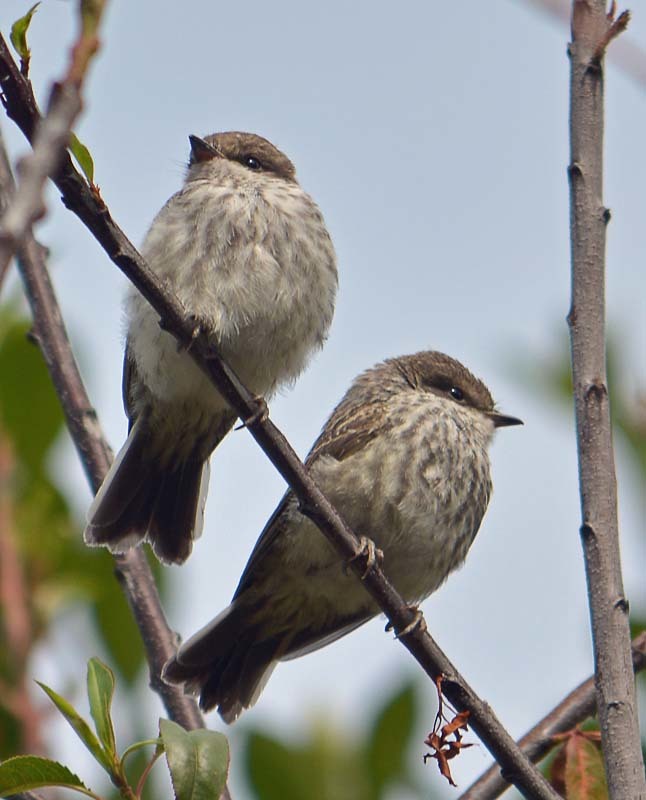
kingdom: Animalia
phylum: Chordata
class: Aves
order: Passeriformes
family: Tyrannidae
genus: Pyrocephalus
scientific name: Pyrocephalus rubinus
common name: Vermilion flycatcher
